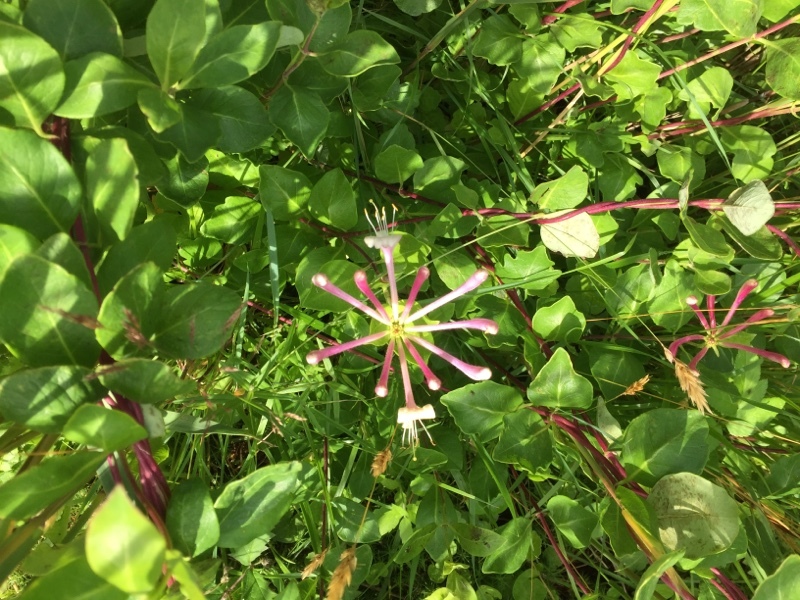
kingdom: Plantae
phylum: Tracheophyta
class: Magnoliopsida
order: Dipsacales
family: Caprifoliaceae
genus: Lonicera
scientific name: Lonicera periclymenum
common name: European honeysuckle
